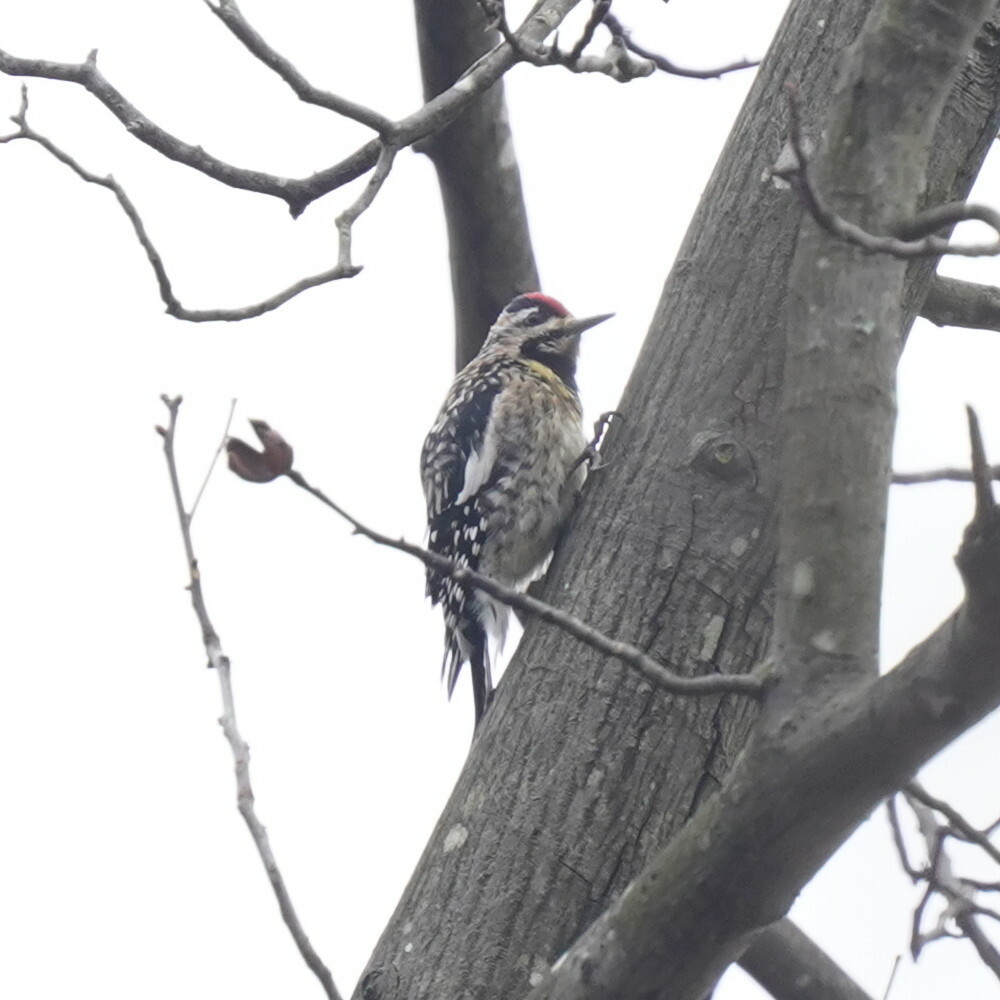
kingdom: Animalia
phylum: Chordata
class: Aves
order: Piciformes
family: Picidae
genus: Sphyrapicus
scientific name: Sphyrapicus varius
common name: Yellow-bellied sapsucker
